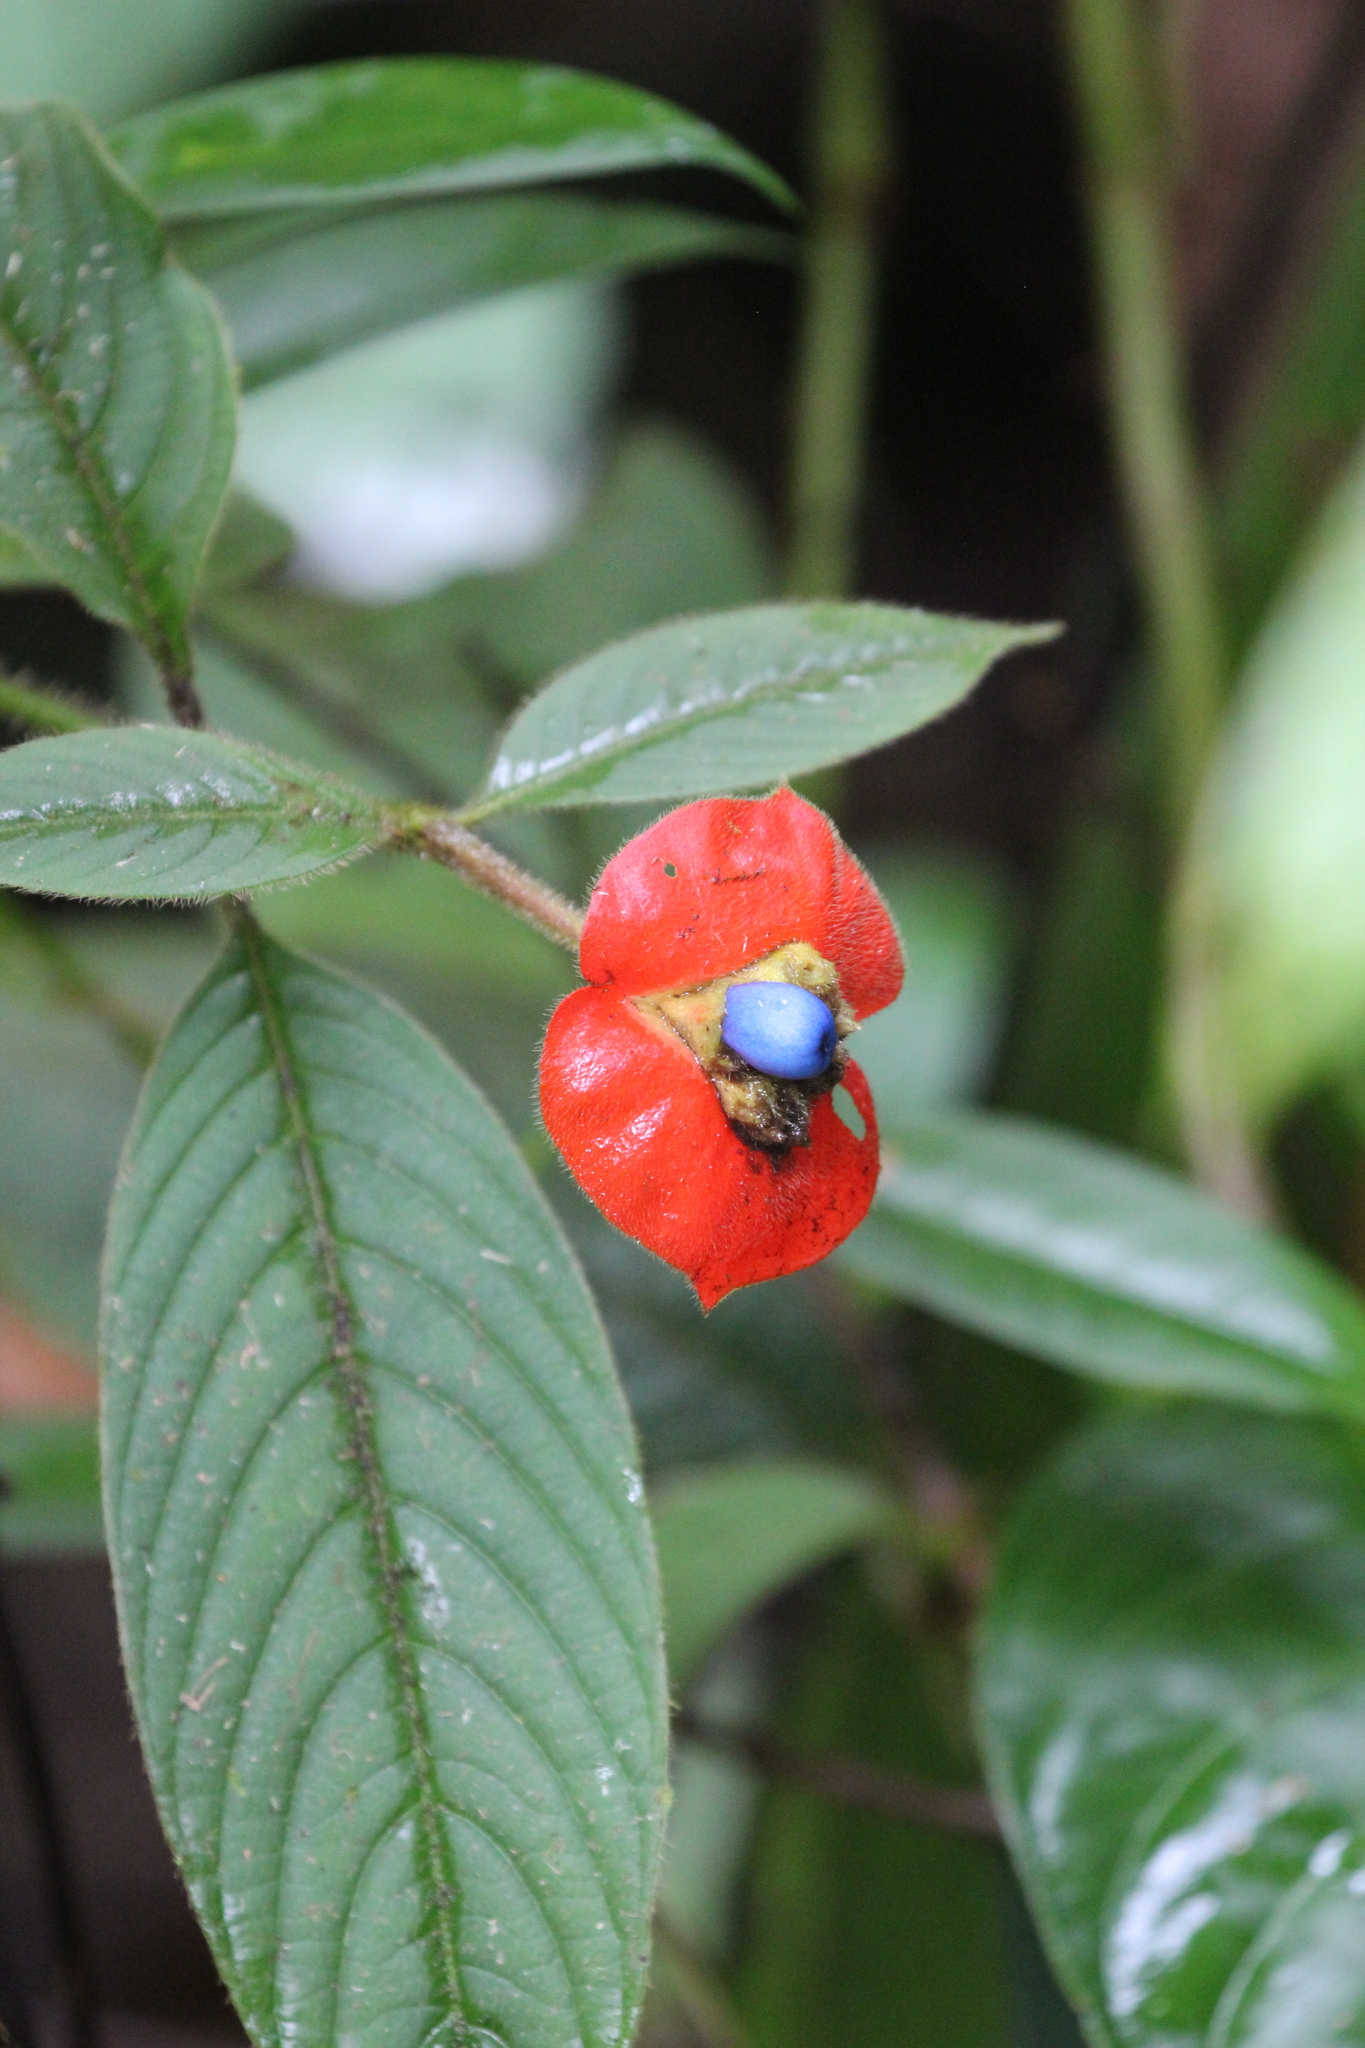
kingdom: Plantae
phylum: Tracheophyta
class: Magnoliopsida
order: Gentianales
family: Rubiaceae
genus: Palicourea
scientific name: Palicourea tomentosa
